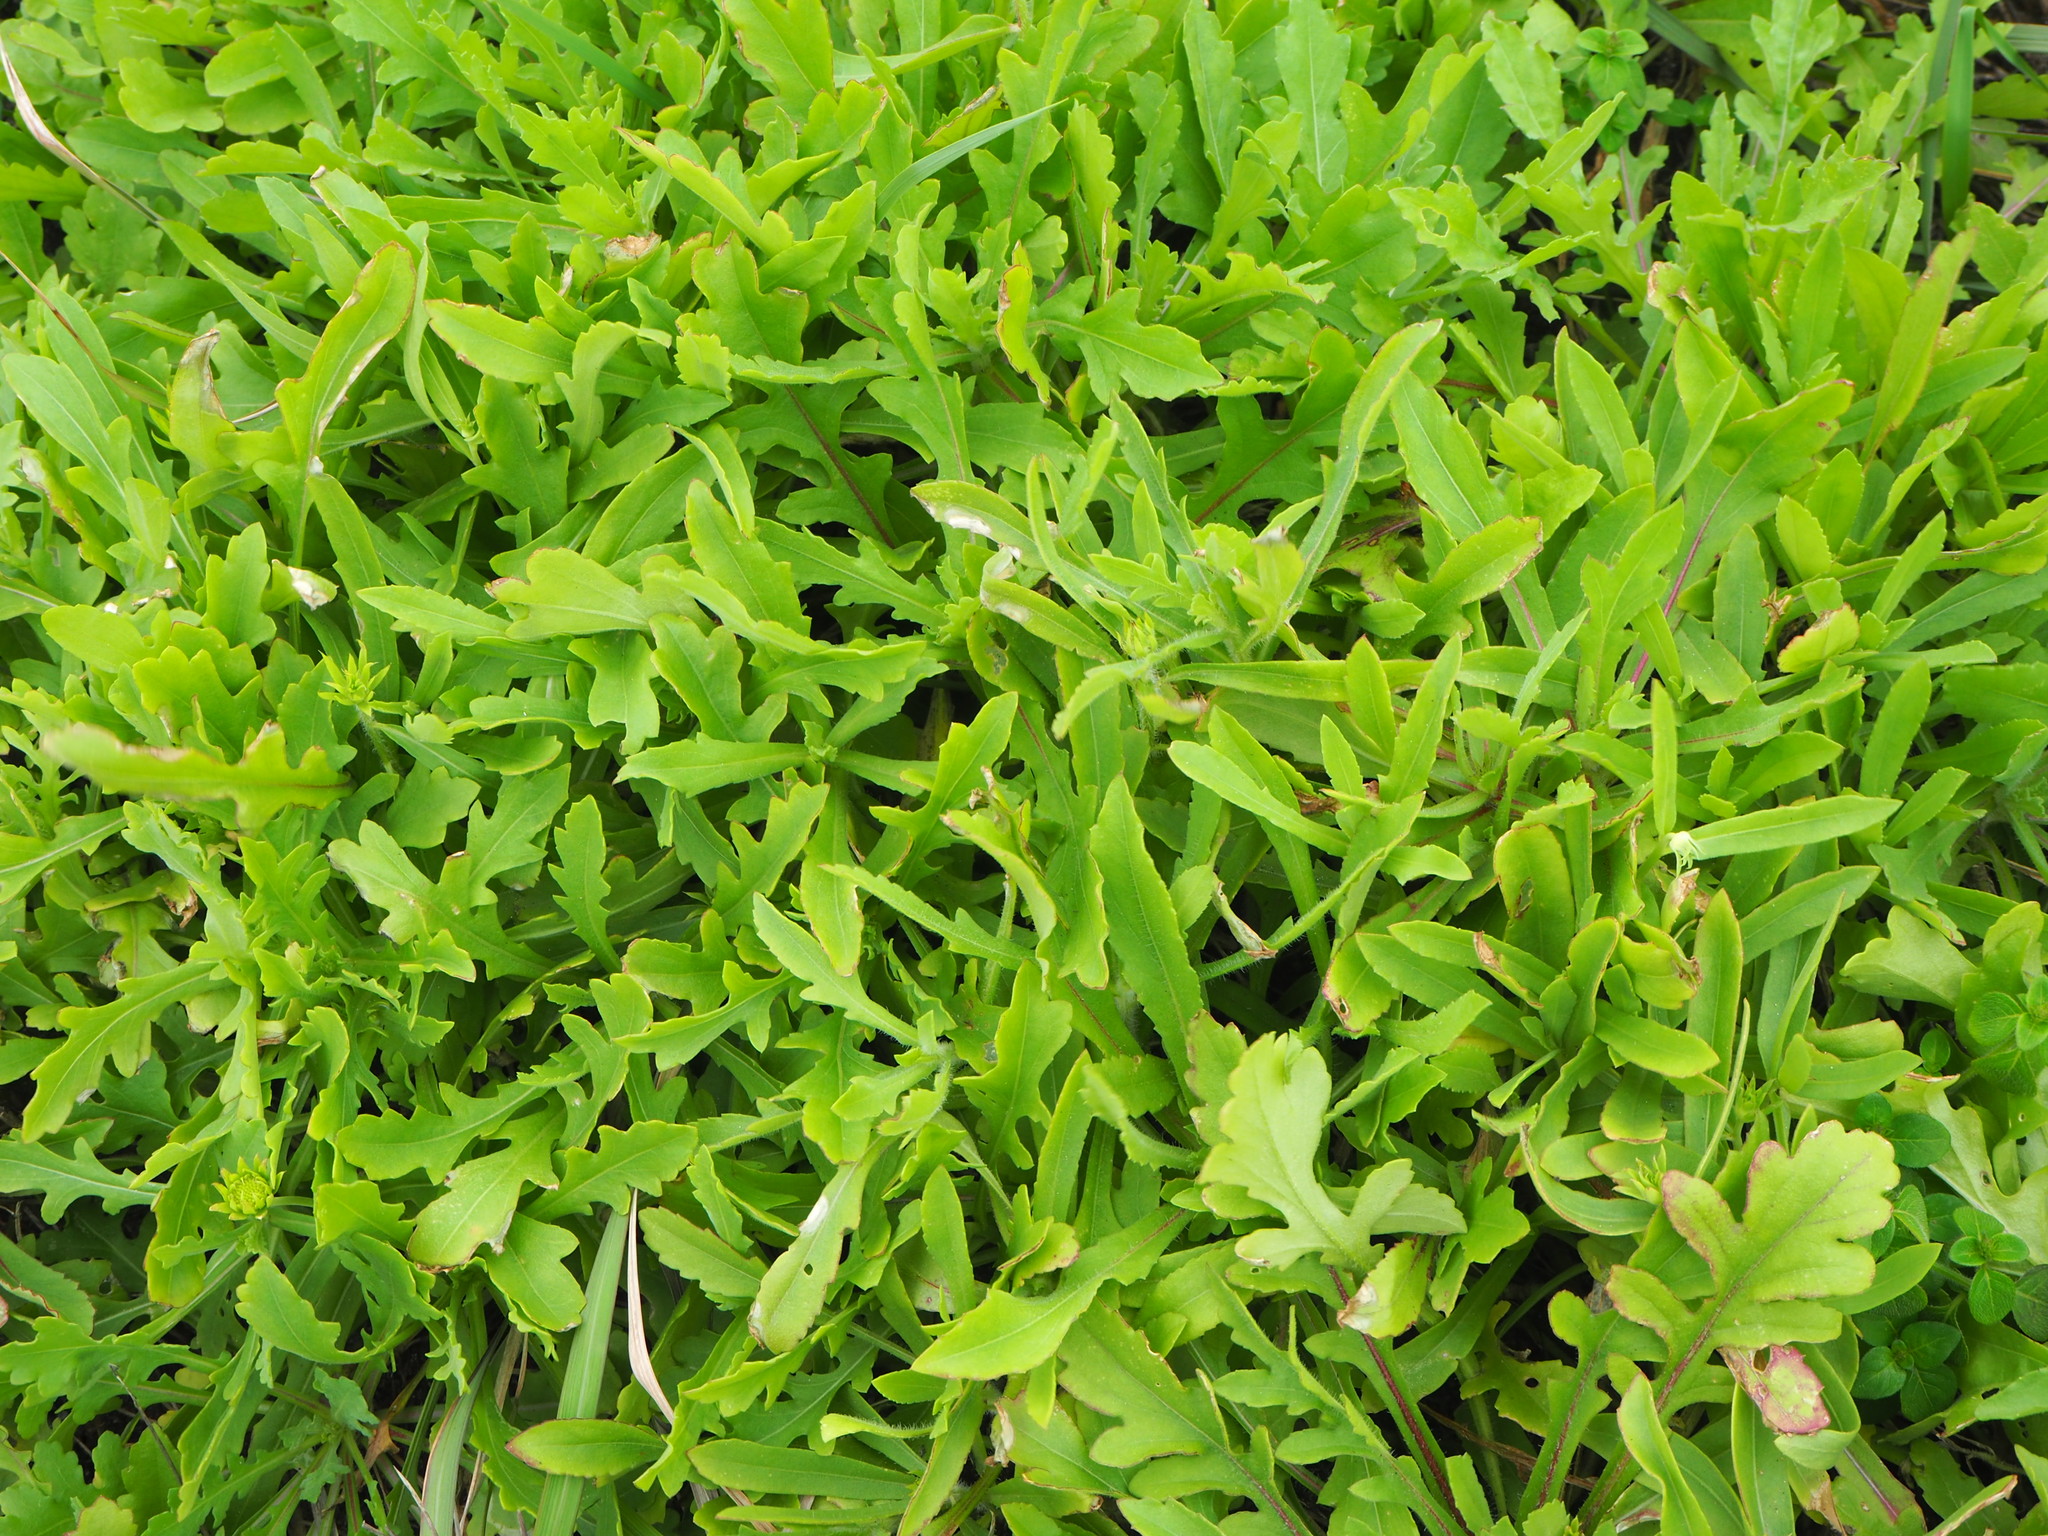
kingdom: Plantae
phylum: Tracheophyta
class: Magnoliopsida
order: Asterales
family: Asteraceae
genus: Gaillardia
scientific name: Gaillardia pulchella
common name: Firewheel
